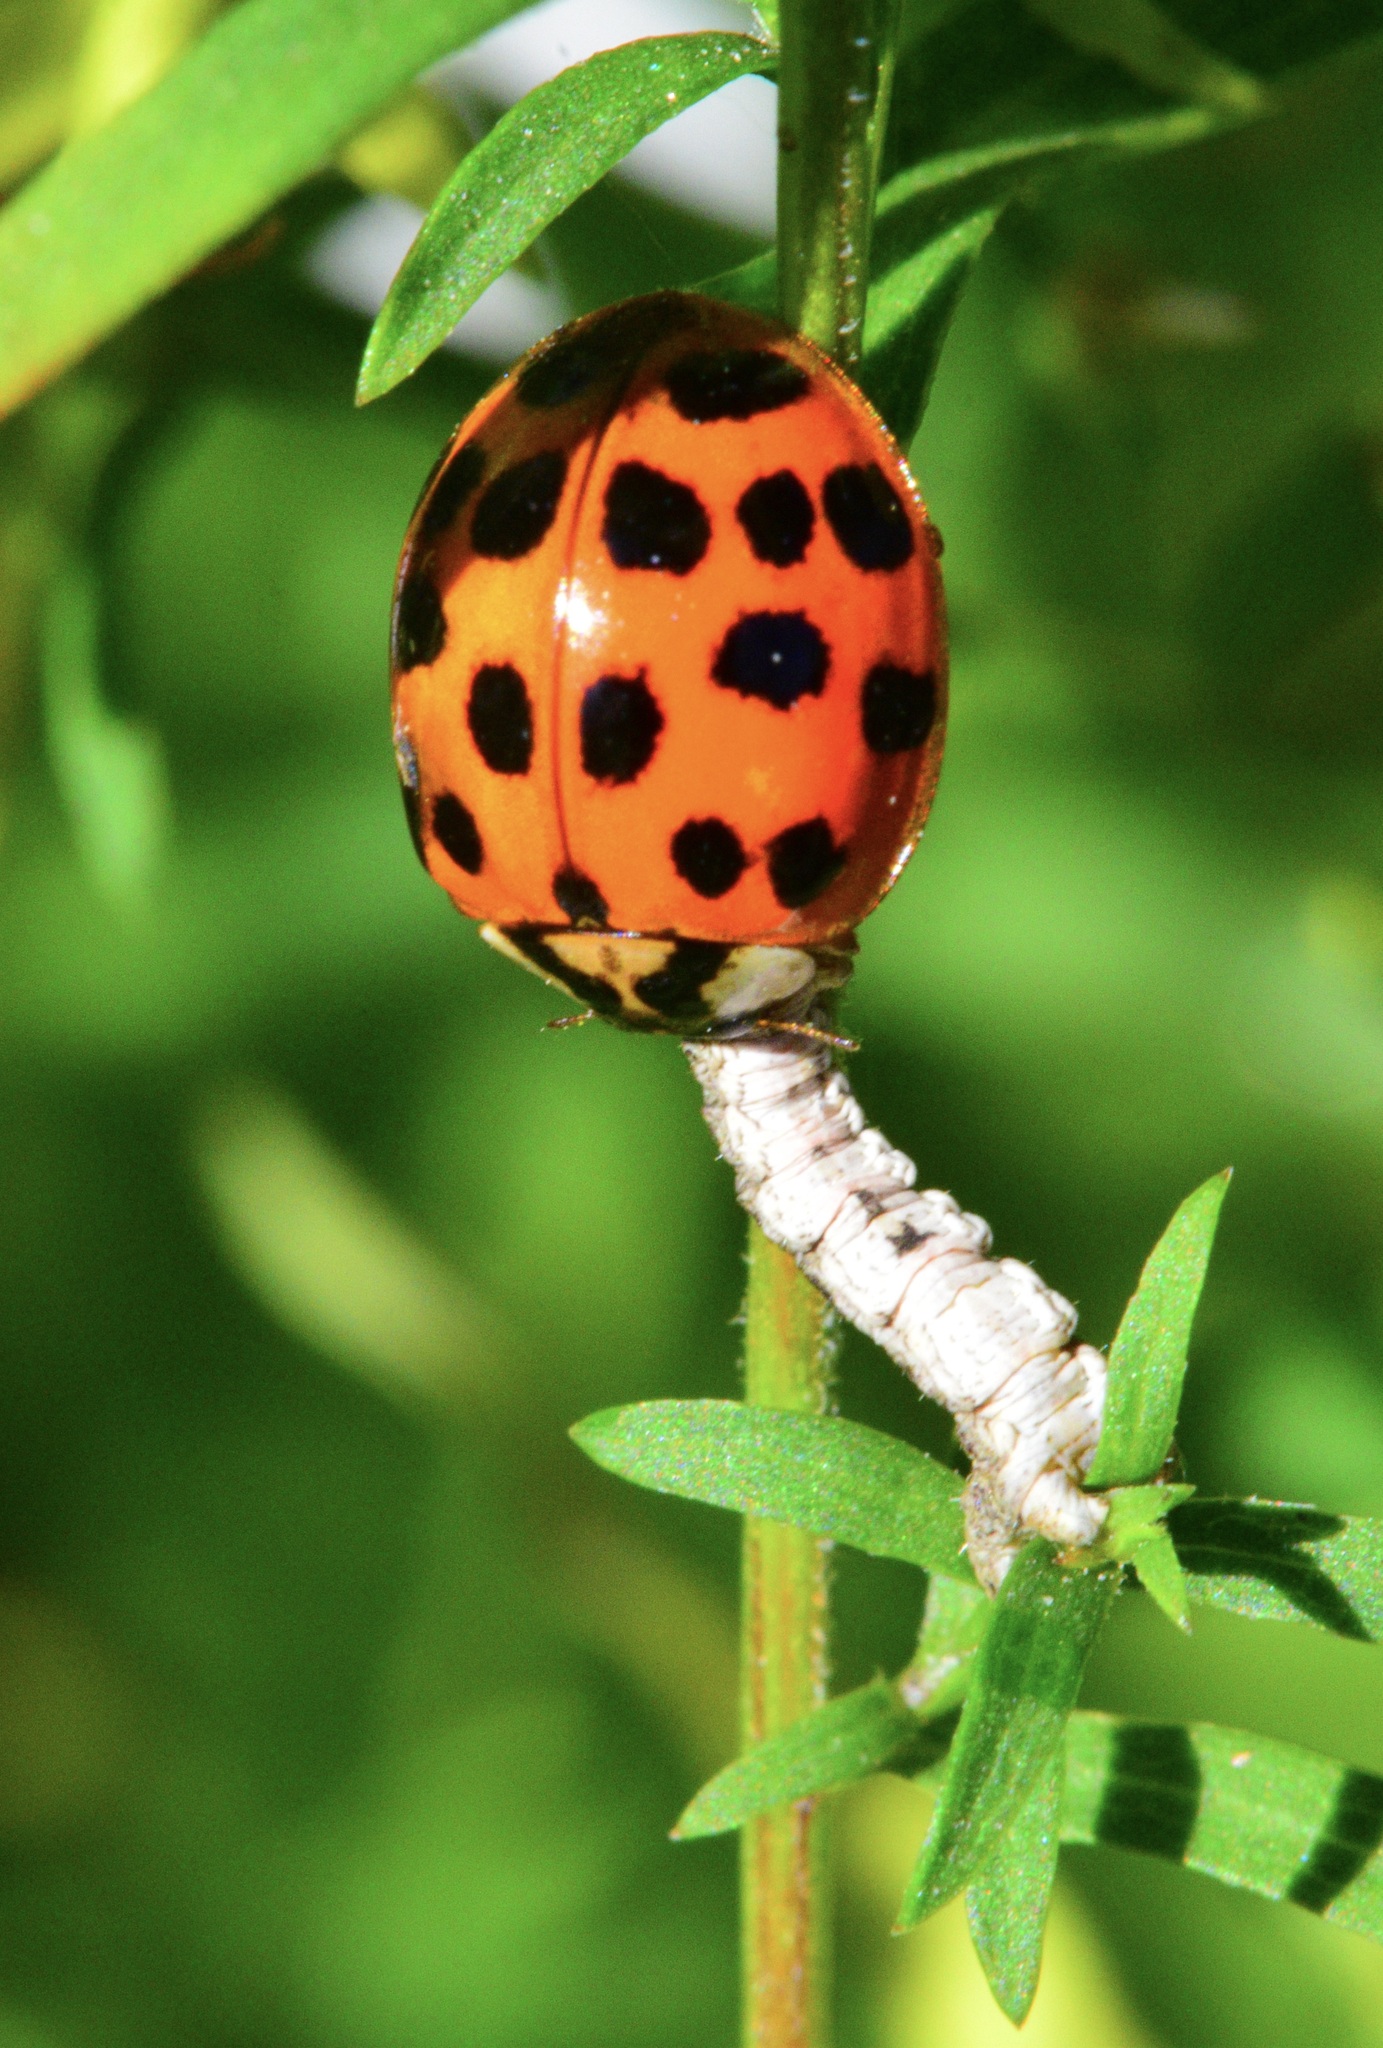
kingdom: Animalia
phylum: Arthropoda
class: Insecta
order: Coleoptera
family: Coccinellidae
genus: Harmonia
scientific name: Harmonia axyridis
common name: Harlequin ladybird
